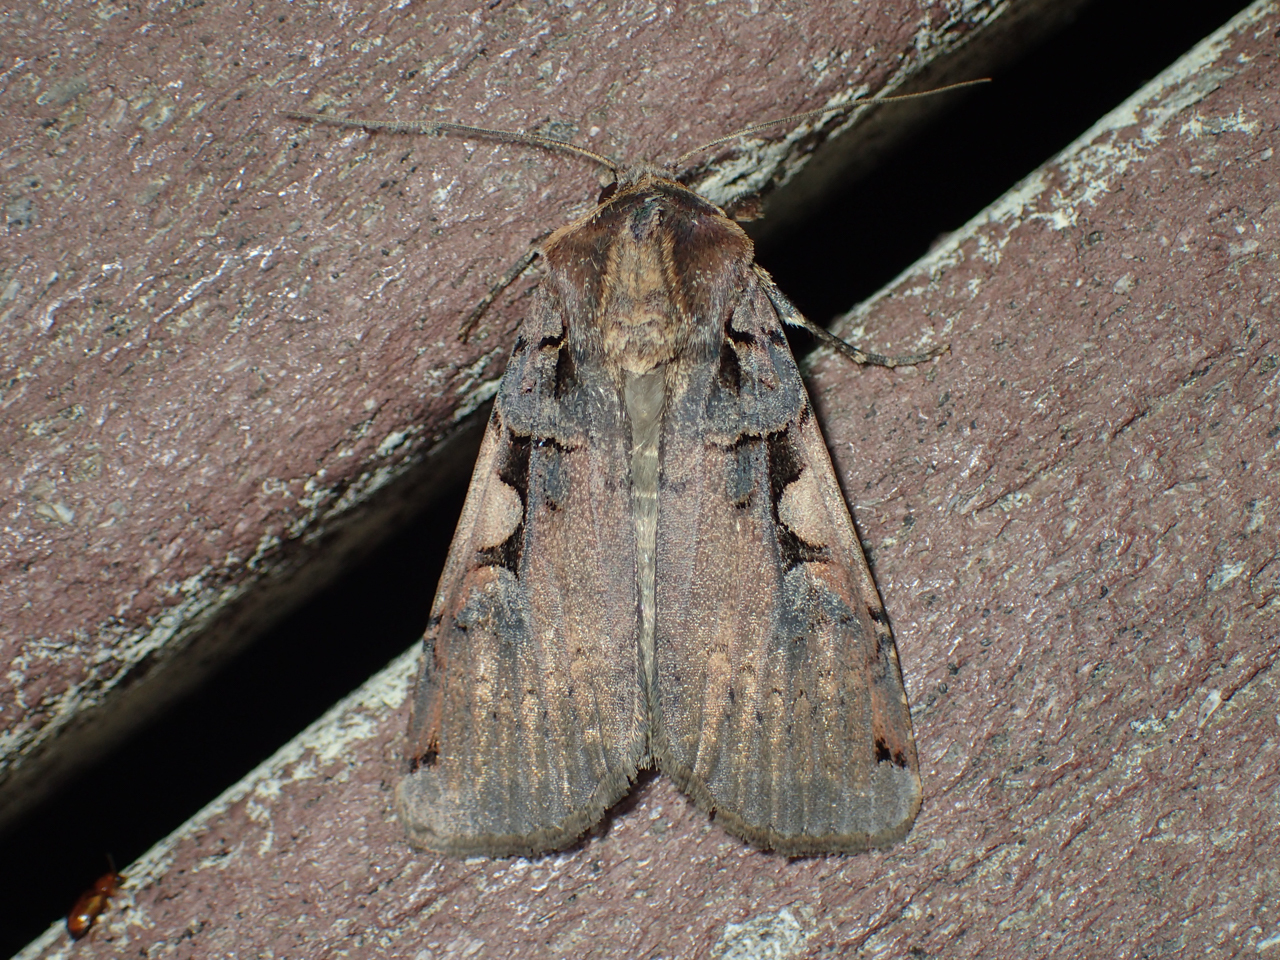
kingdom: Animalia
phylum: Arthropoda
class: Insecta
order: Lepidoptera
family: Noctuidae
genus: Xestia
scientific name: Xestia dolosa
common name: Cutworm moth
